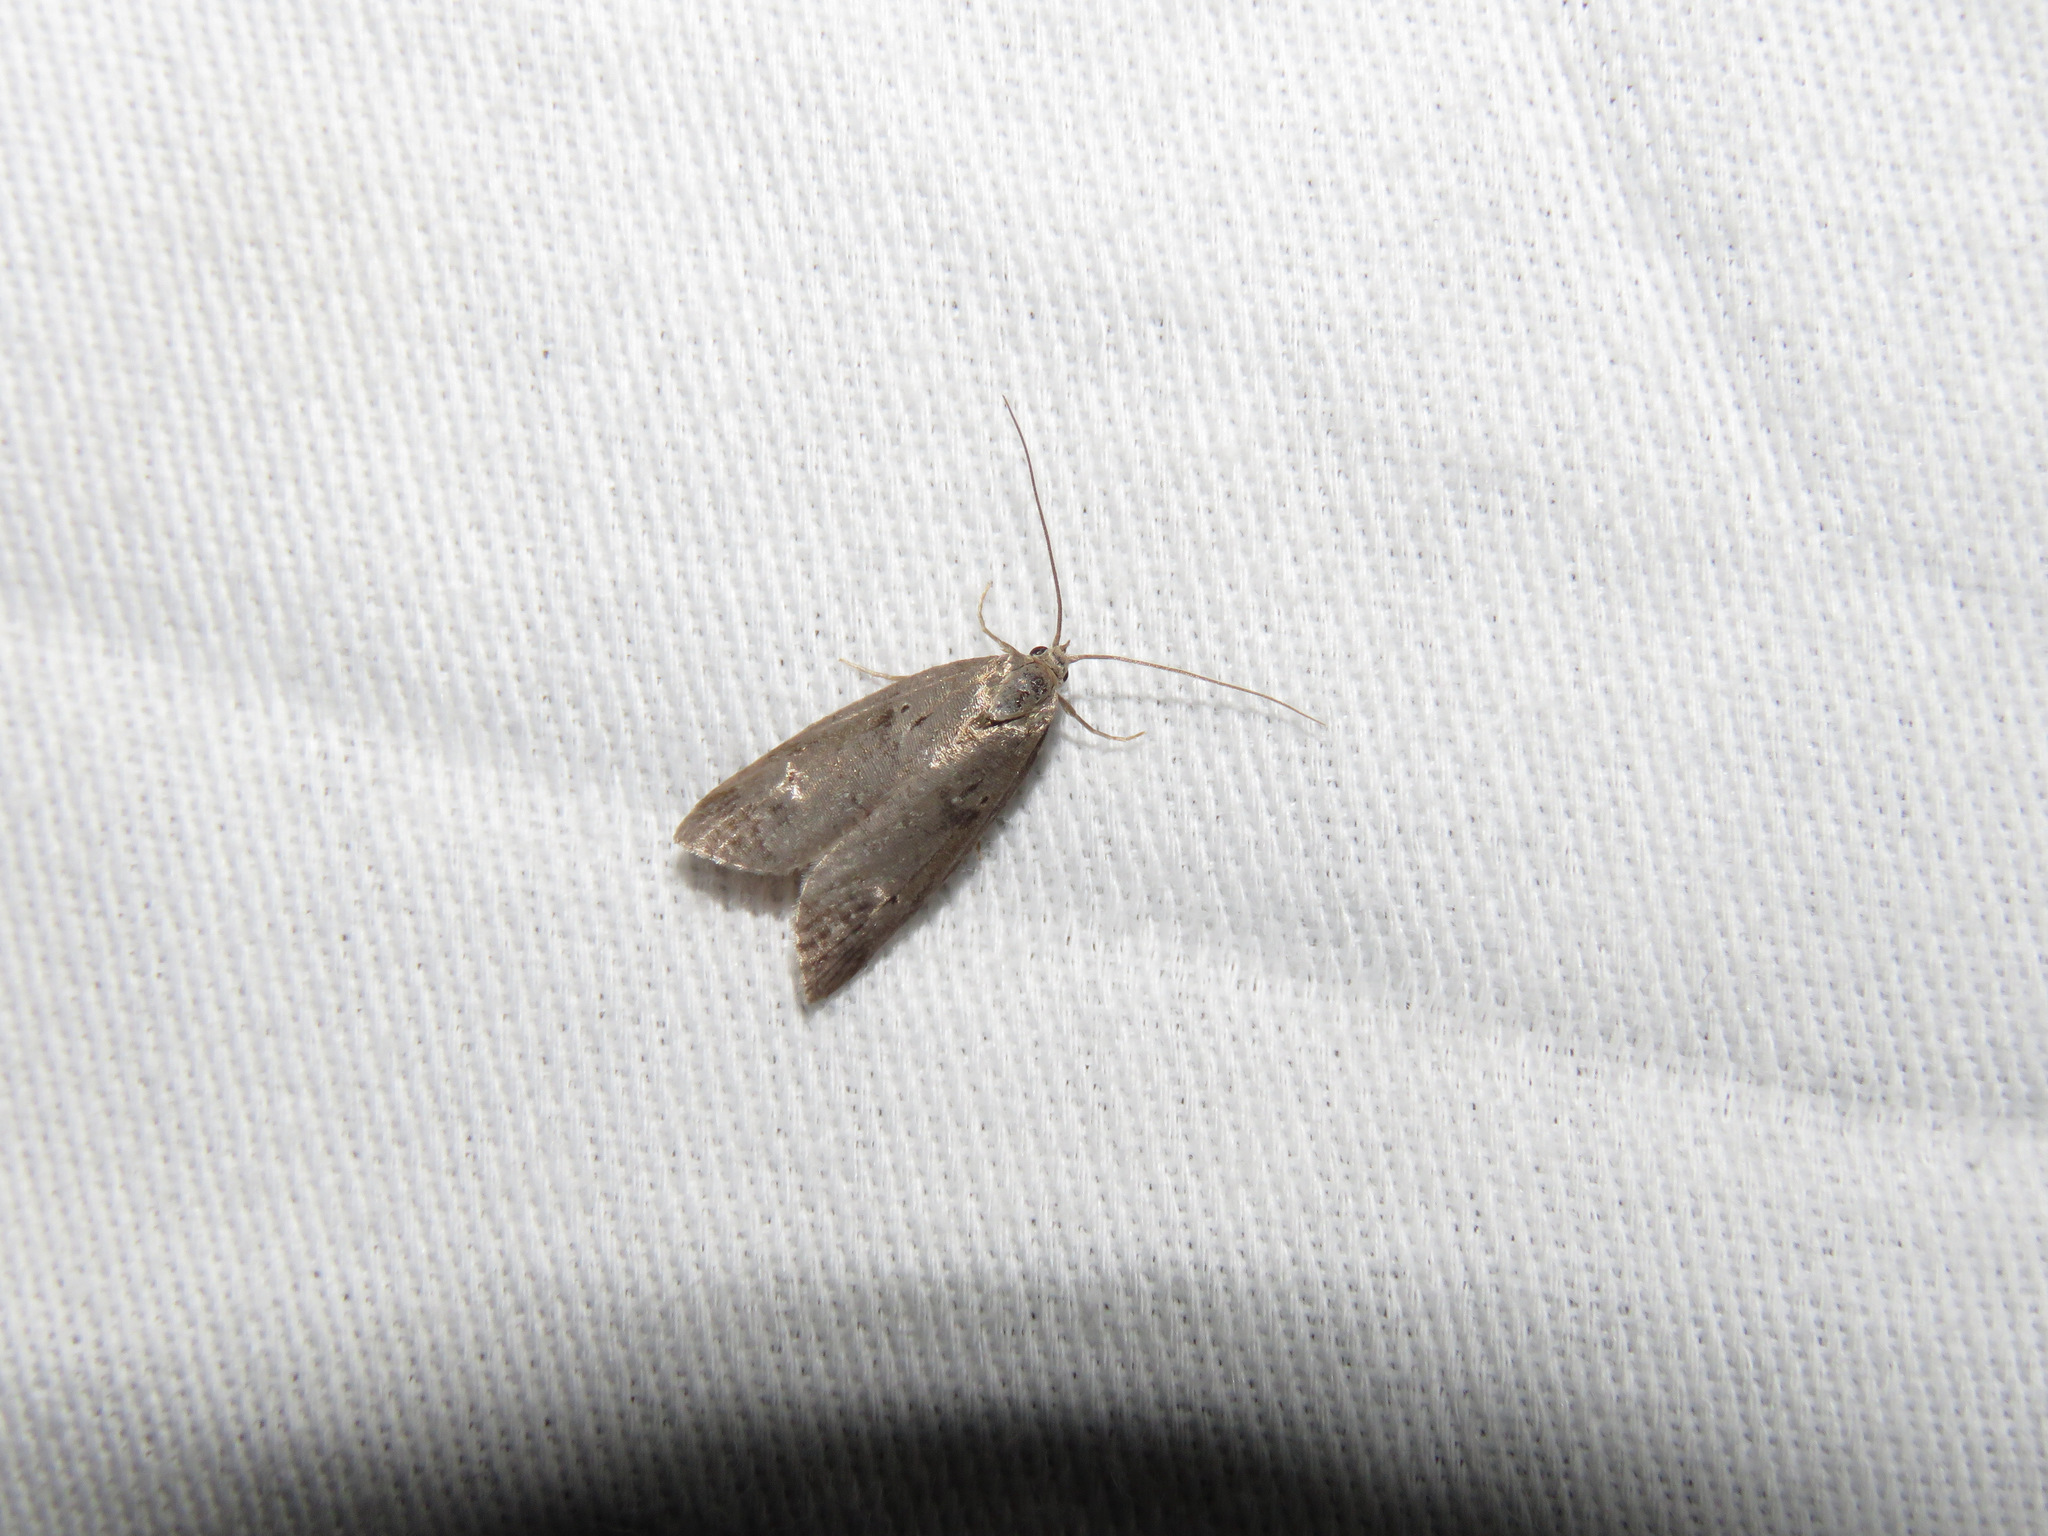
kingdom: Animalia
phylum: Arthropoda
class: Insecta
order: Lepidoptera
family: Copromorphidae
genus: Lotisma
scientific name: Lotisma trigonana
